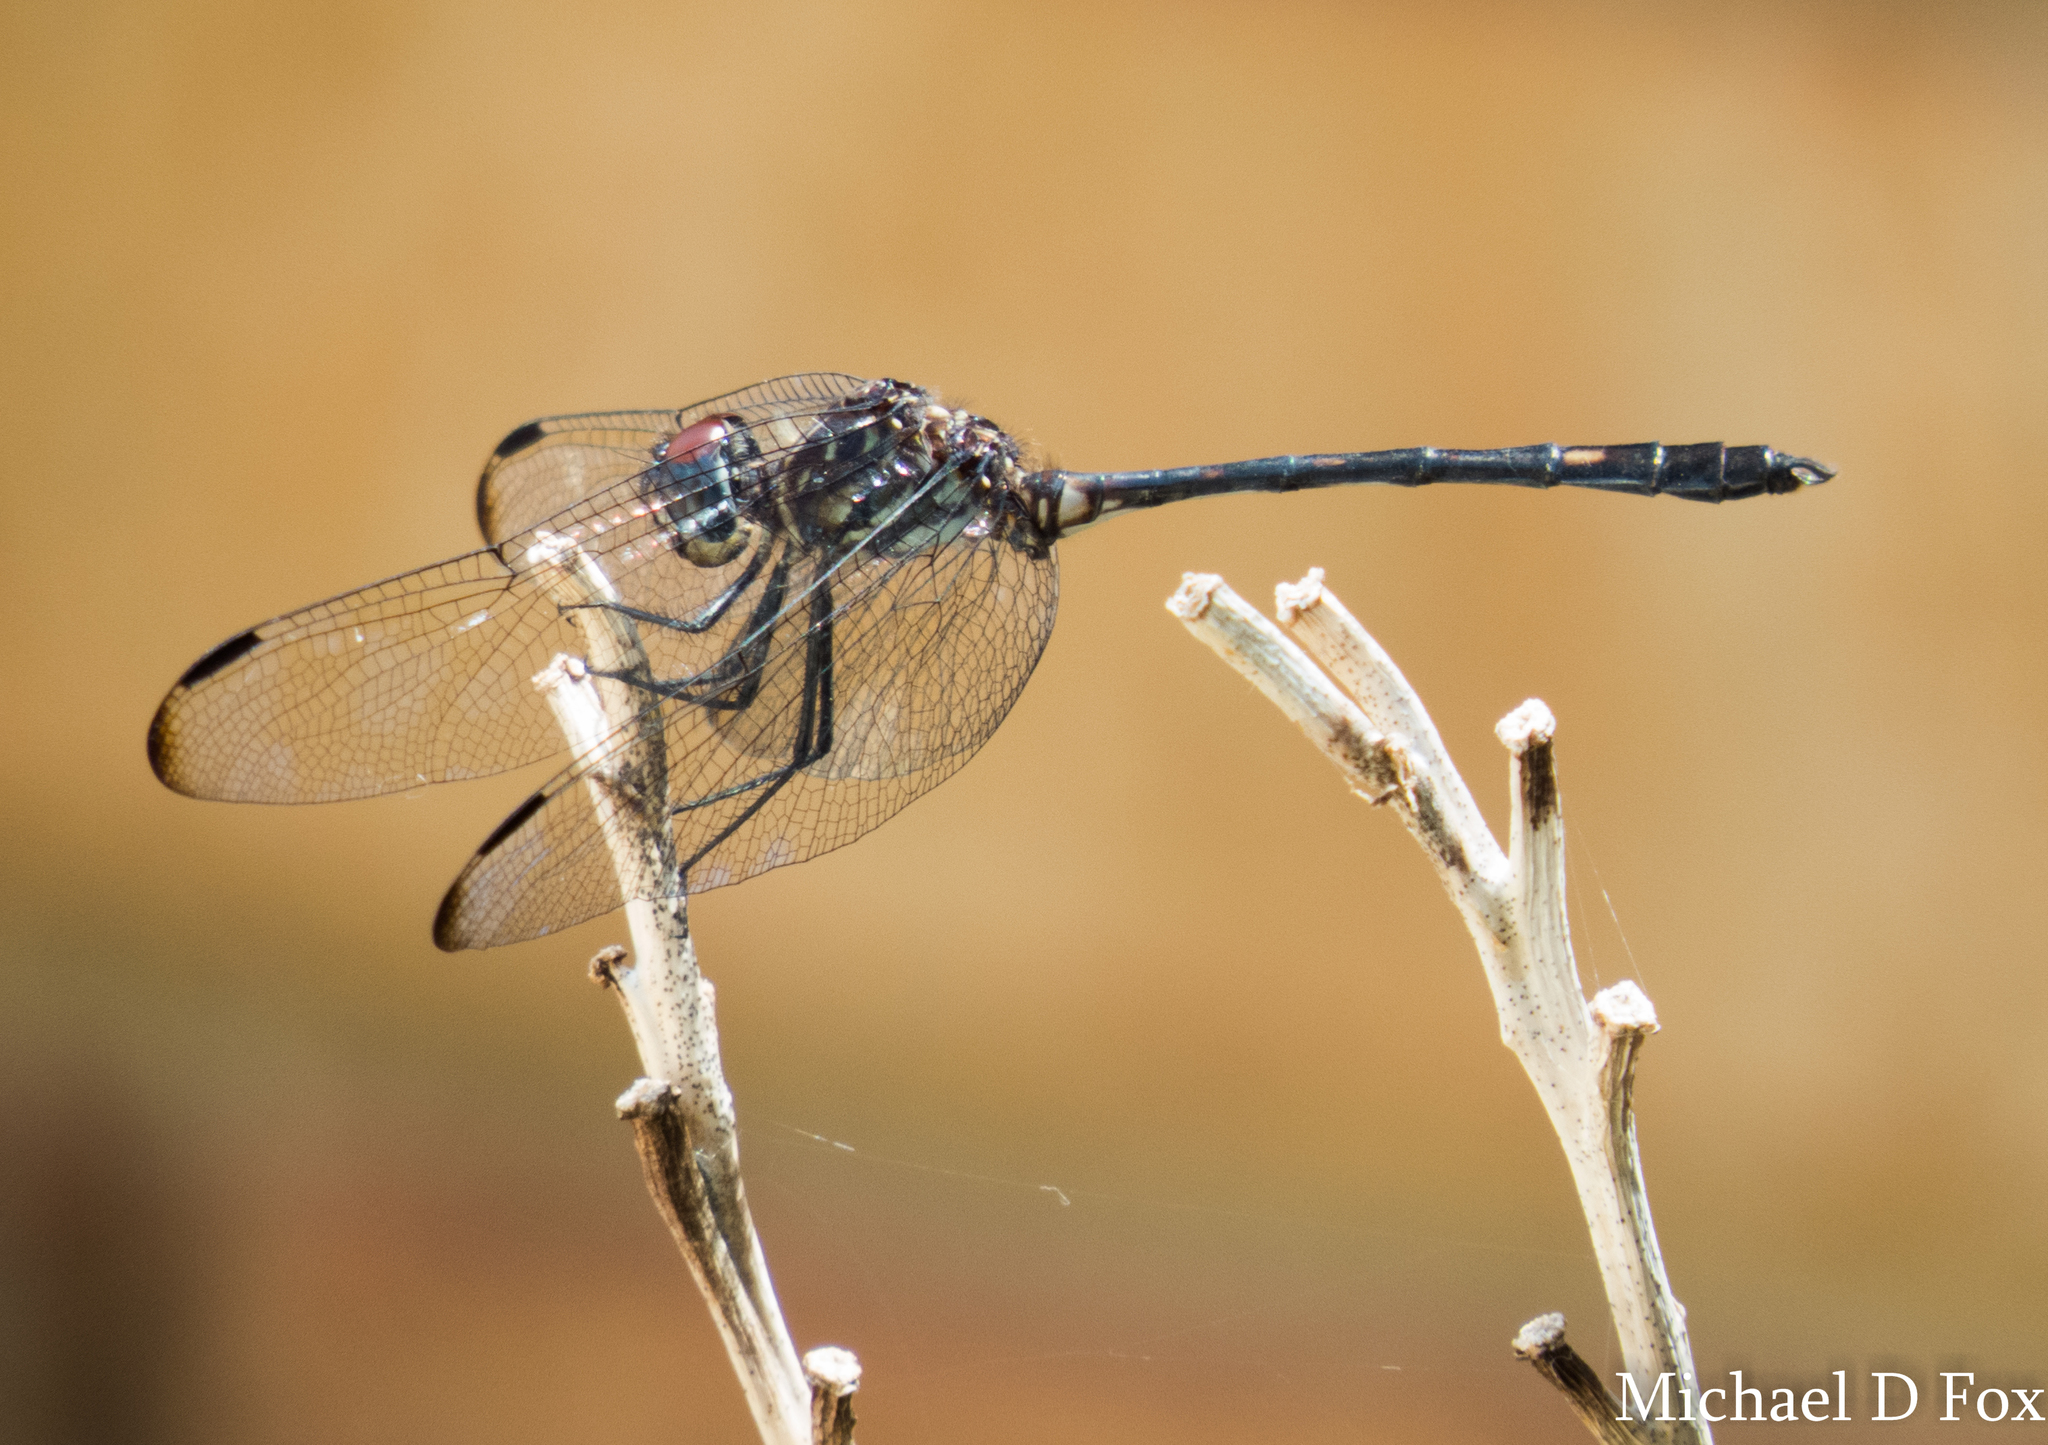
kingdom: Animalia
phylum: Arthropoda
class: Insecta
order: Odonata
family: Libellulidae
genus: Dythemis
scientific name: Dythemis velox
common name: Swift setwing
